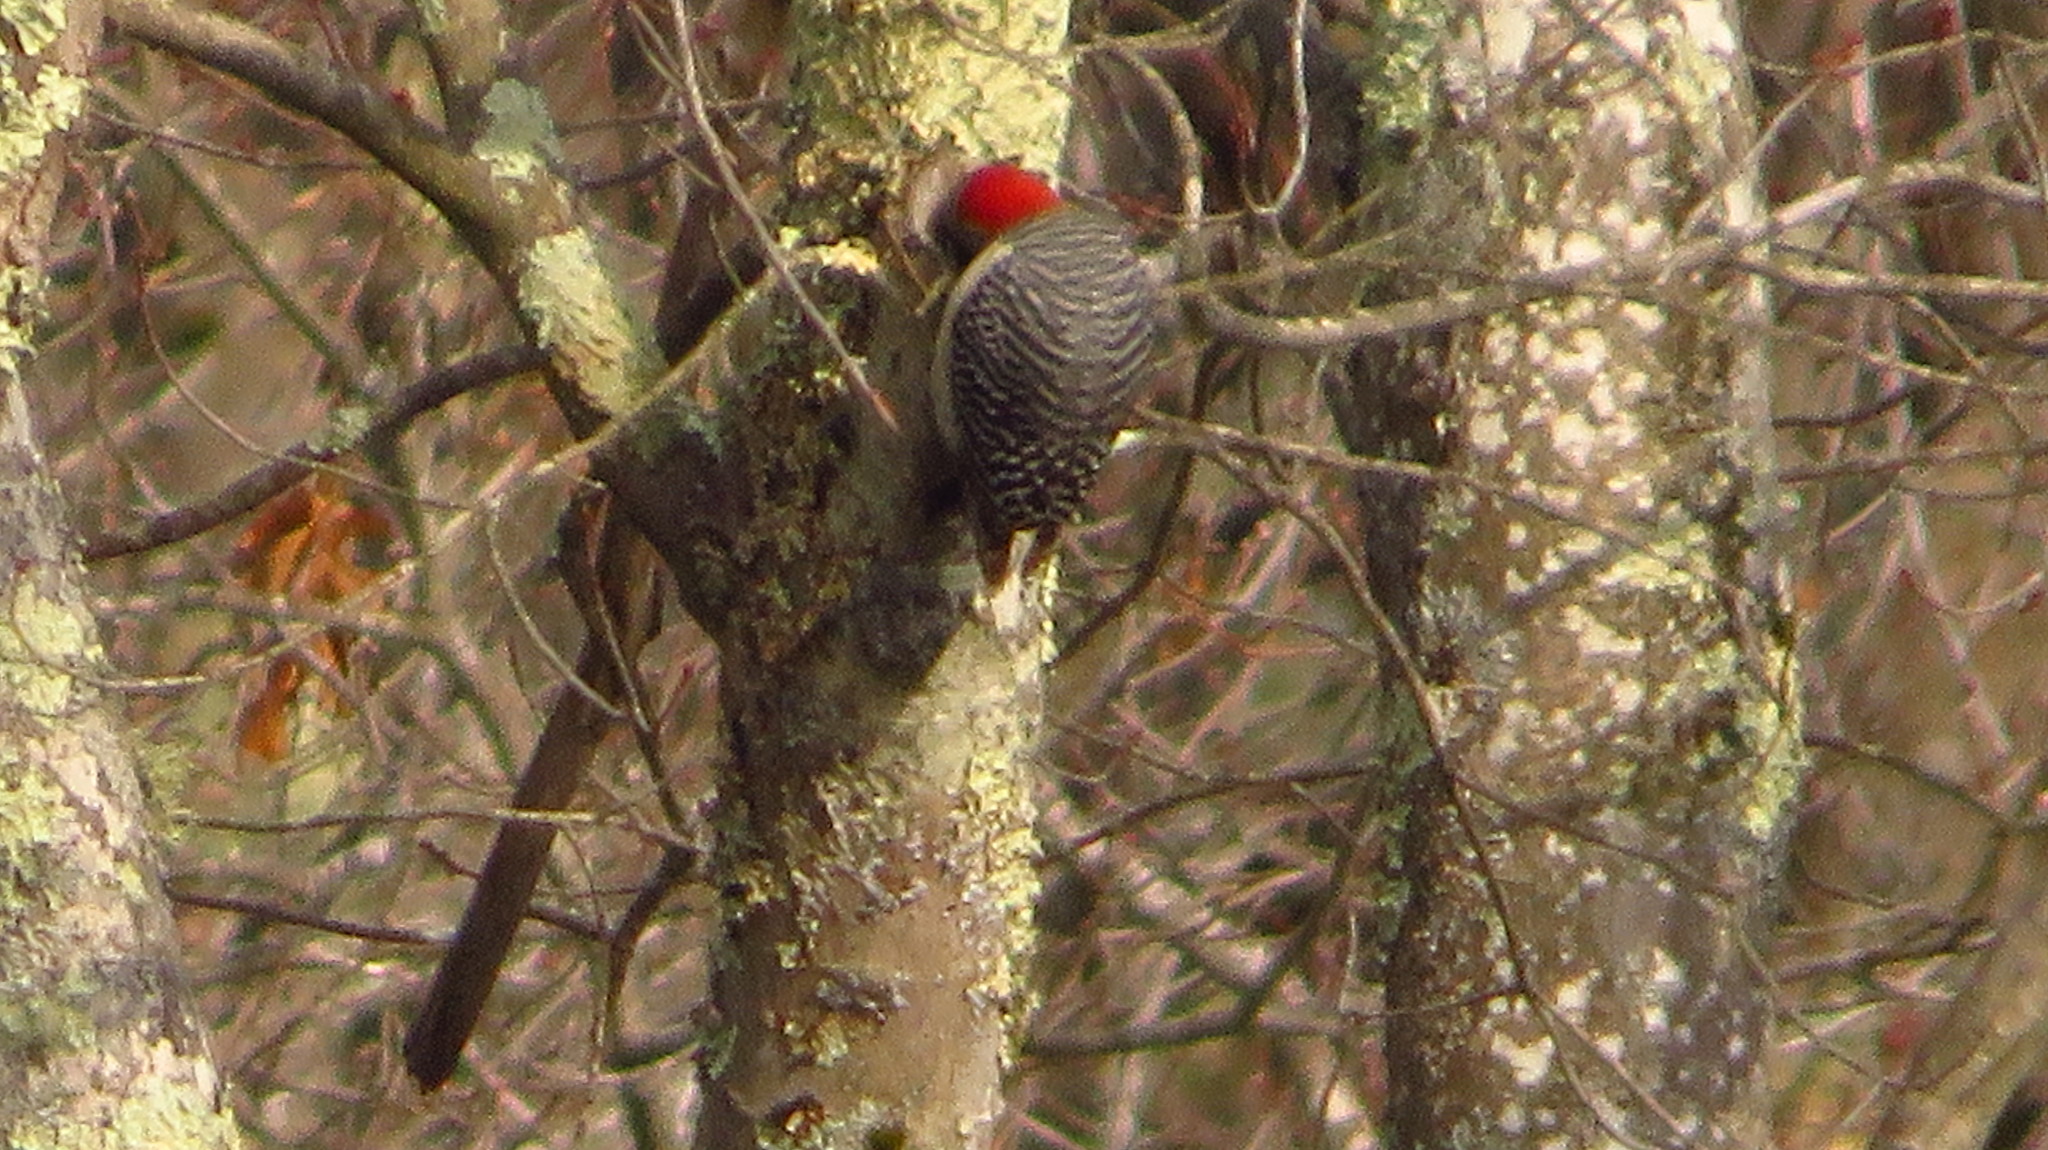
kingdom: Animalia
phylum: Chordata
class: Aves
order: Piciformes
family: Picidae
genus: Melanerpes
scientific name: Melanerpes carolinus
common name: Red-bellied woodpecker
